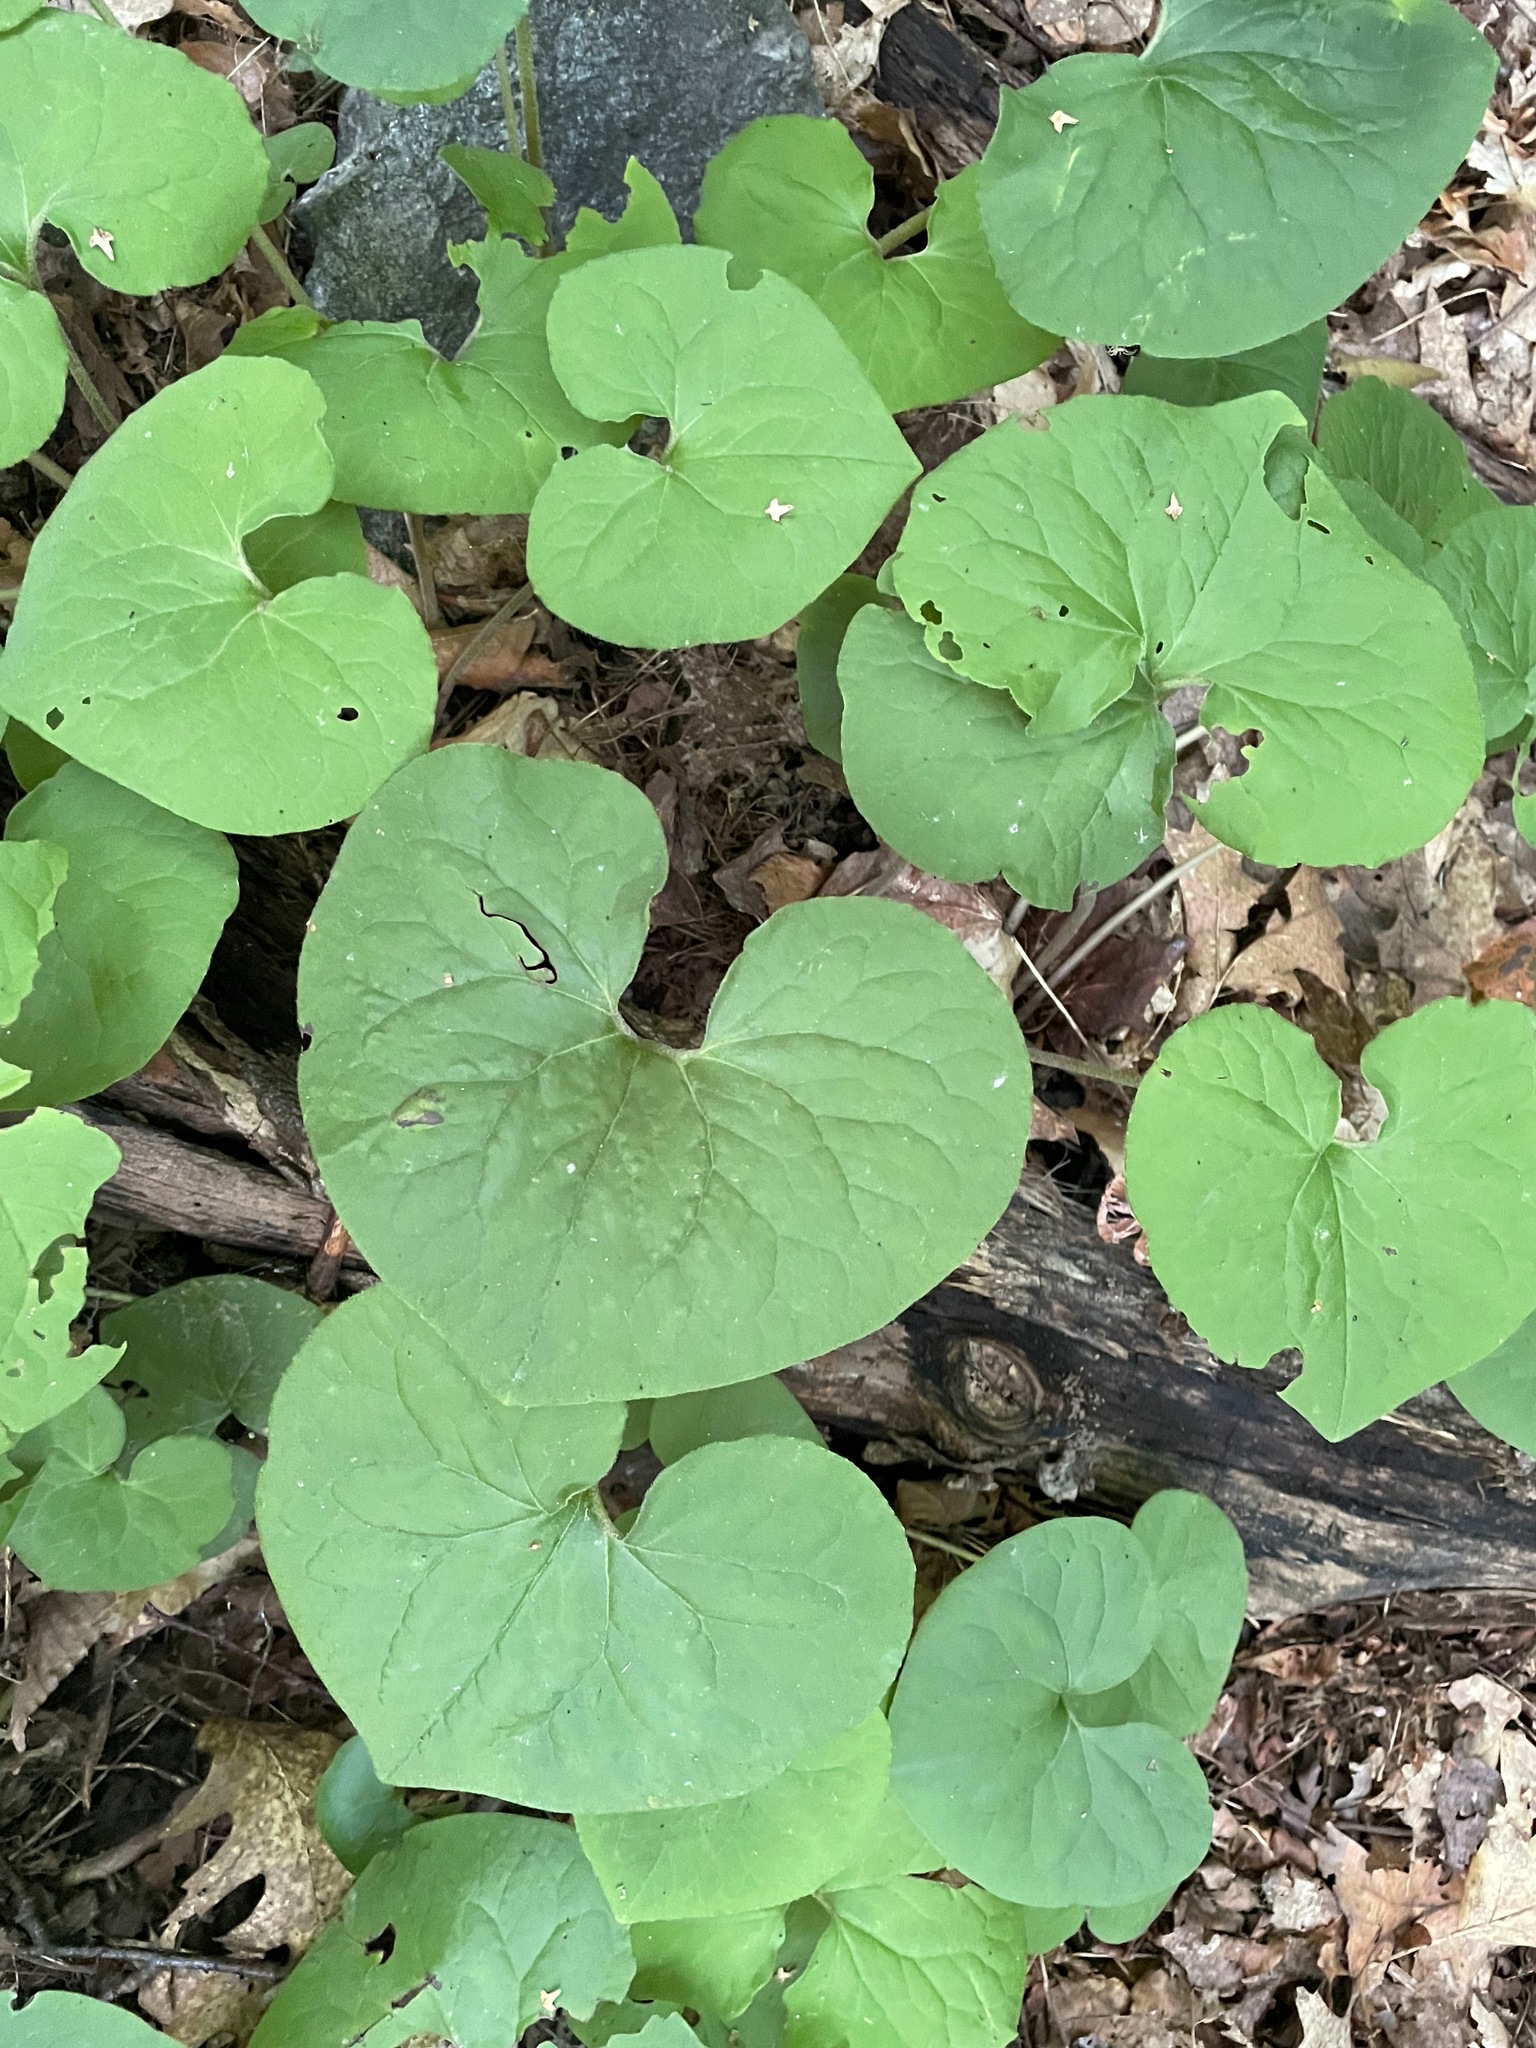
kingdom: Plantae
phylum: Tracheophyta
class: Magnoliopsida
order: Piperales
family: Aristolochiaceae
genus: Asarum
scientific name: Asarum canadense
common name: Wild ginger
